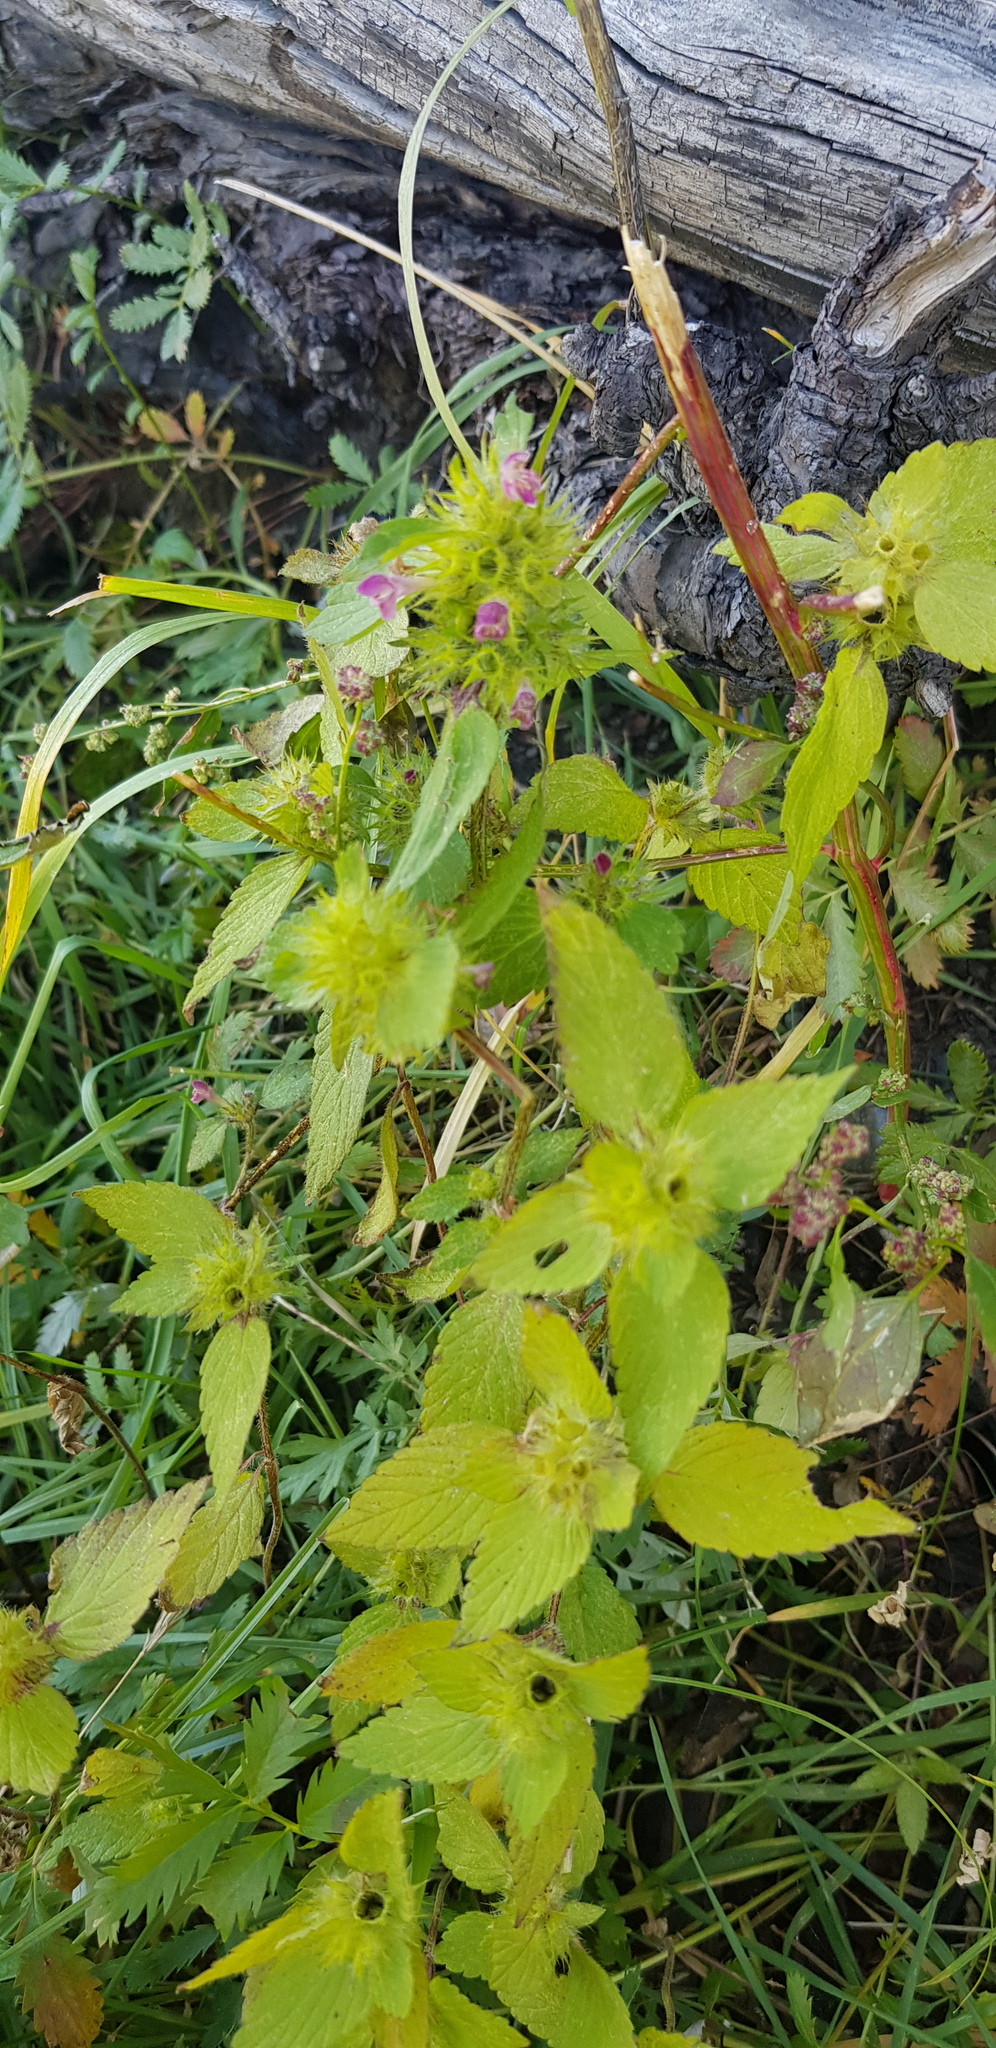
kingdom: Plantae
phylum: Tracheophyta
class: Magnoliopsida
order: Lamiales
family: Lamiaceae
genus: Galeopsis
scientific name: Galeopsis bifida
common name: Bifid hemp-nettle
